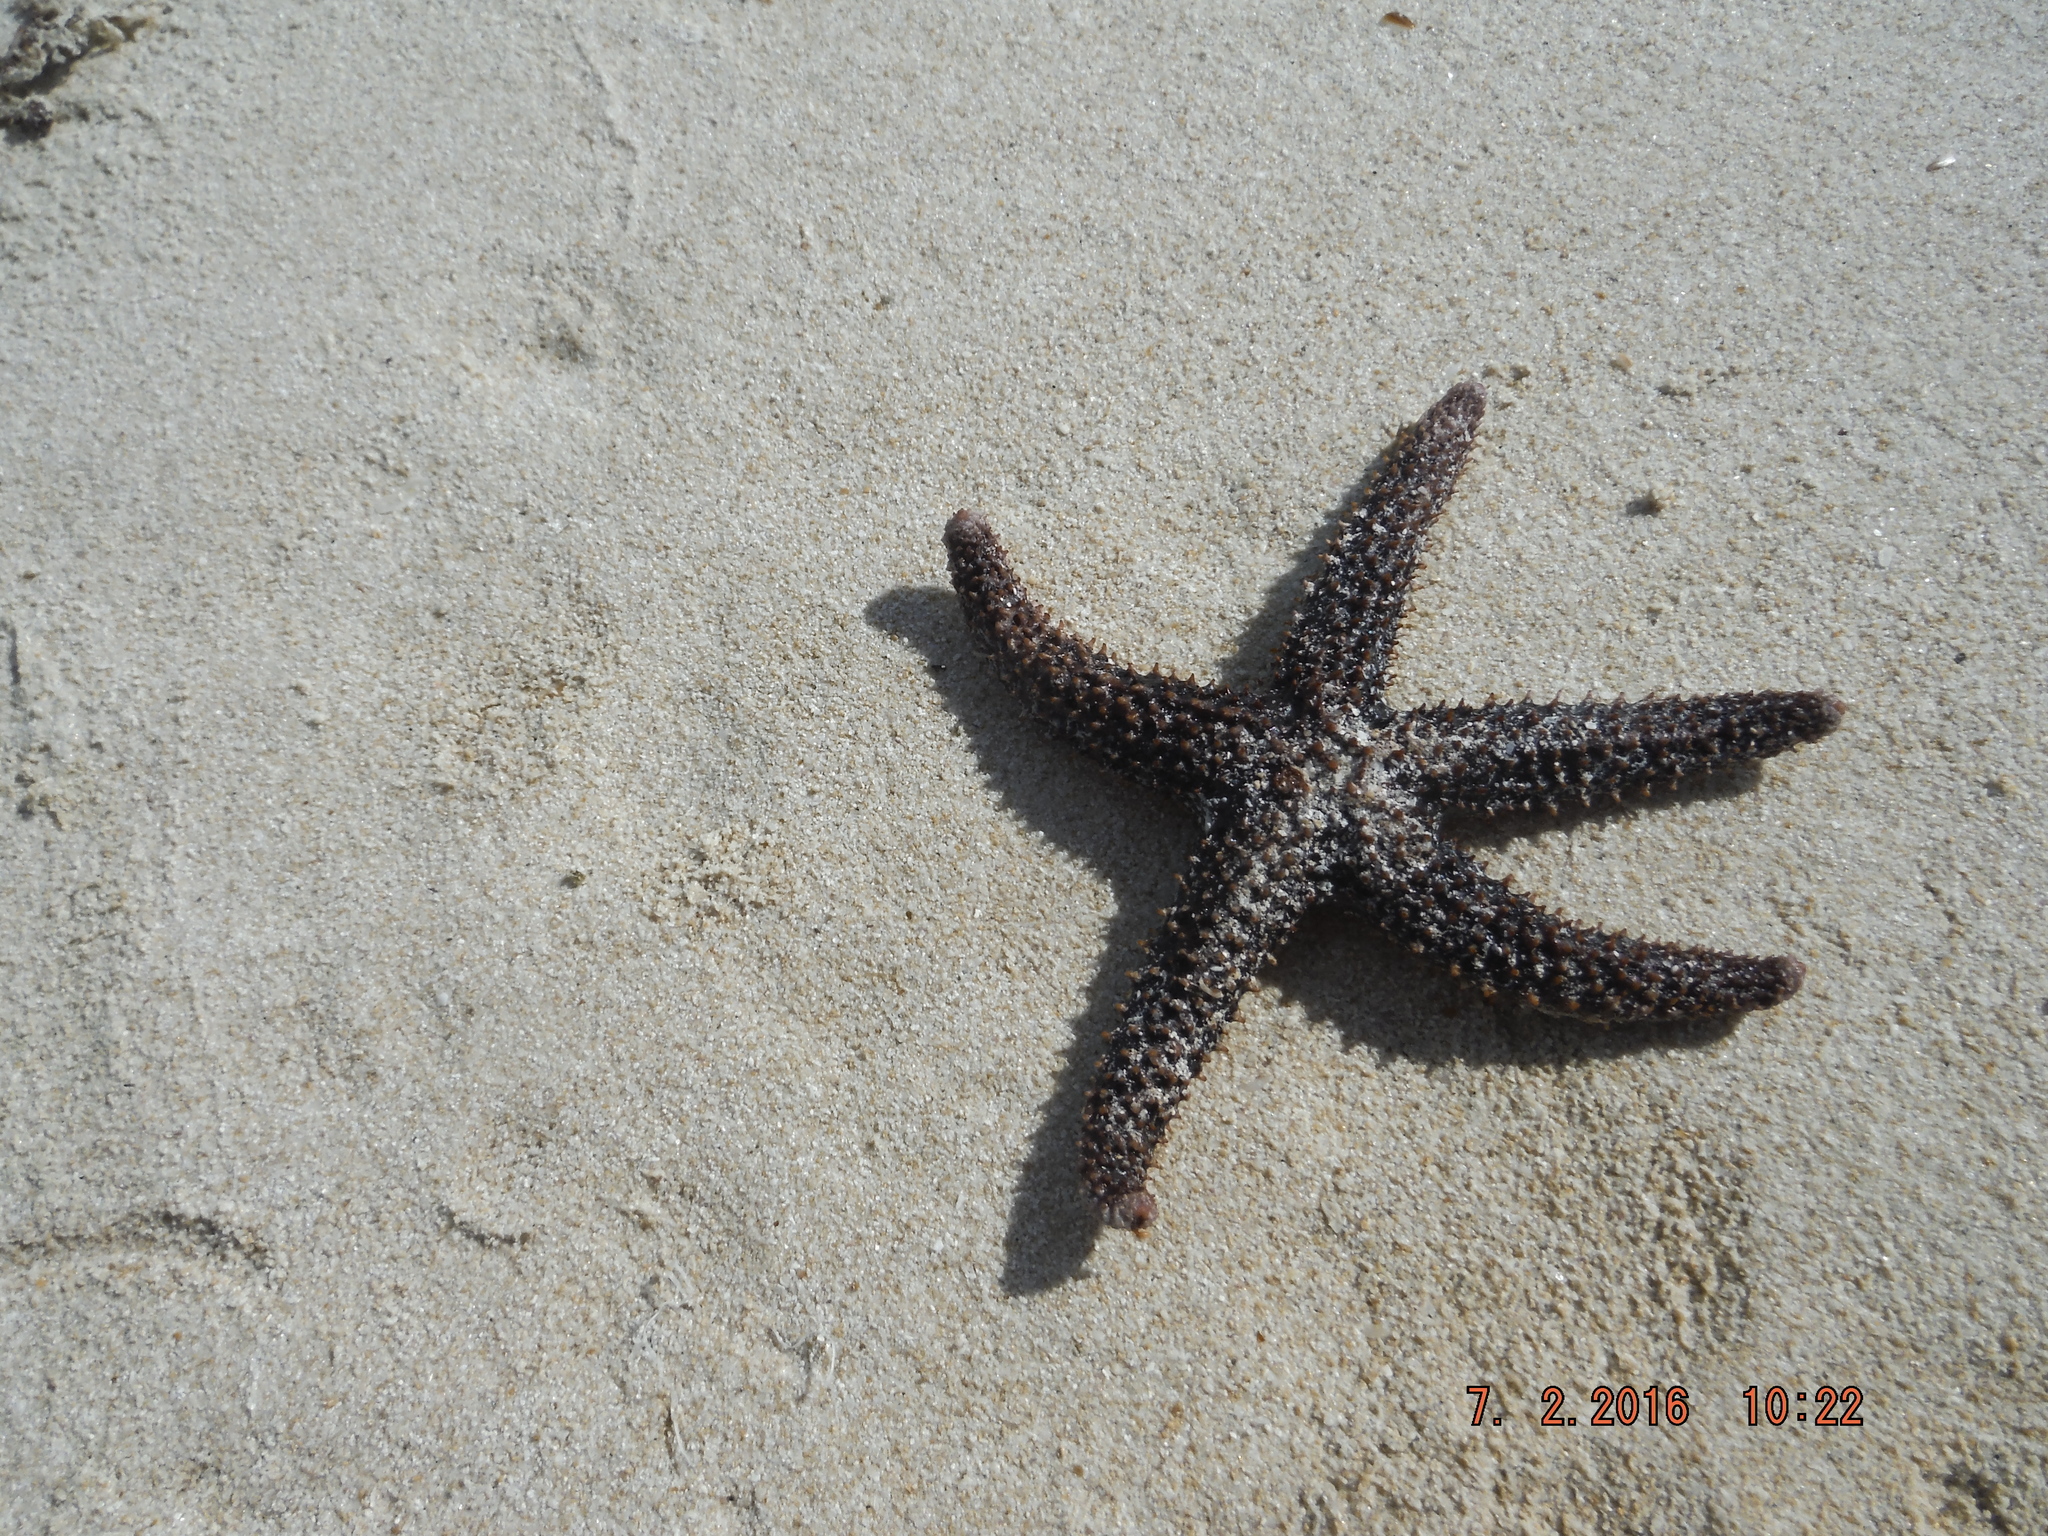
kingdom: Animalia
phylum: Echinodermata
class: Asteroidea
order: Spinulosida
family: Echinasteridae
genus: Echinaster
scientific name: Echinaster serpentarius
